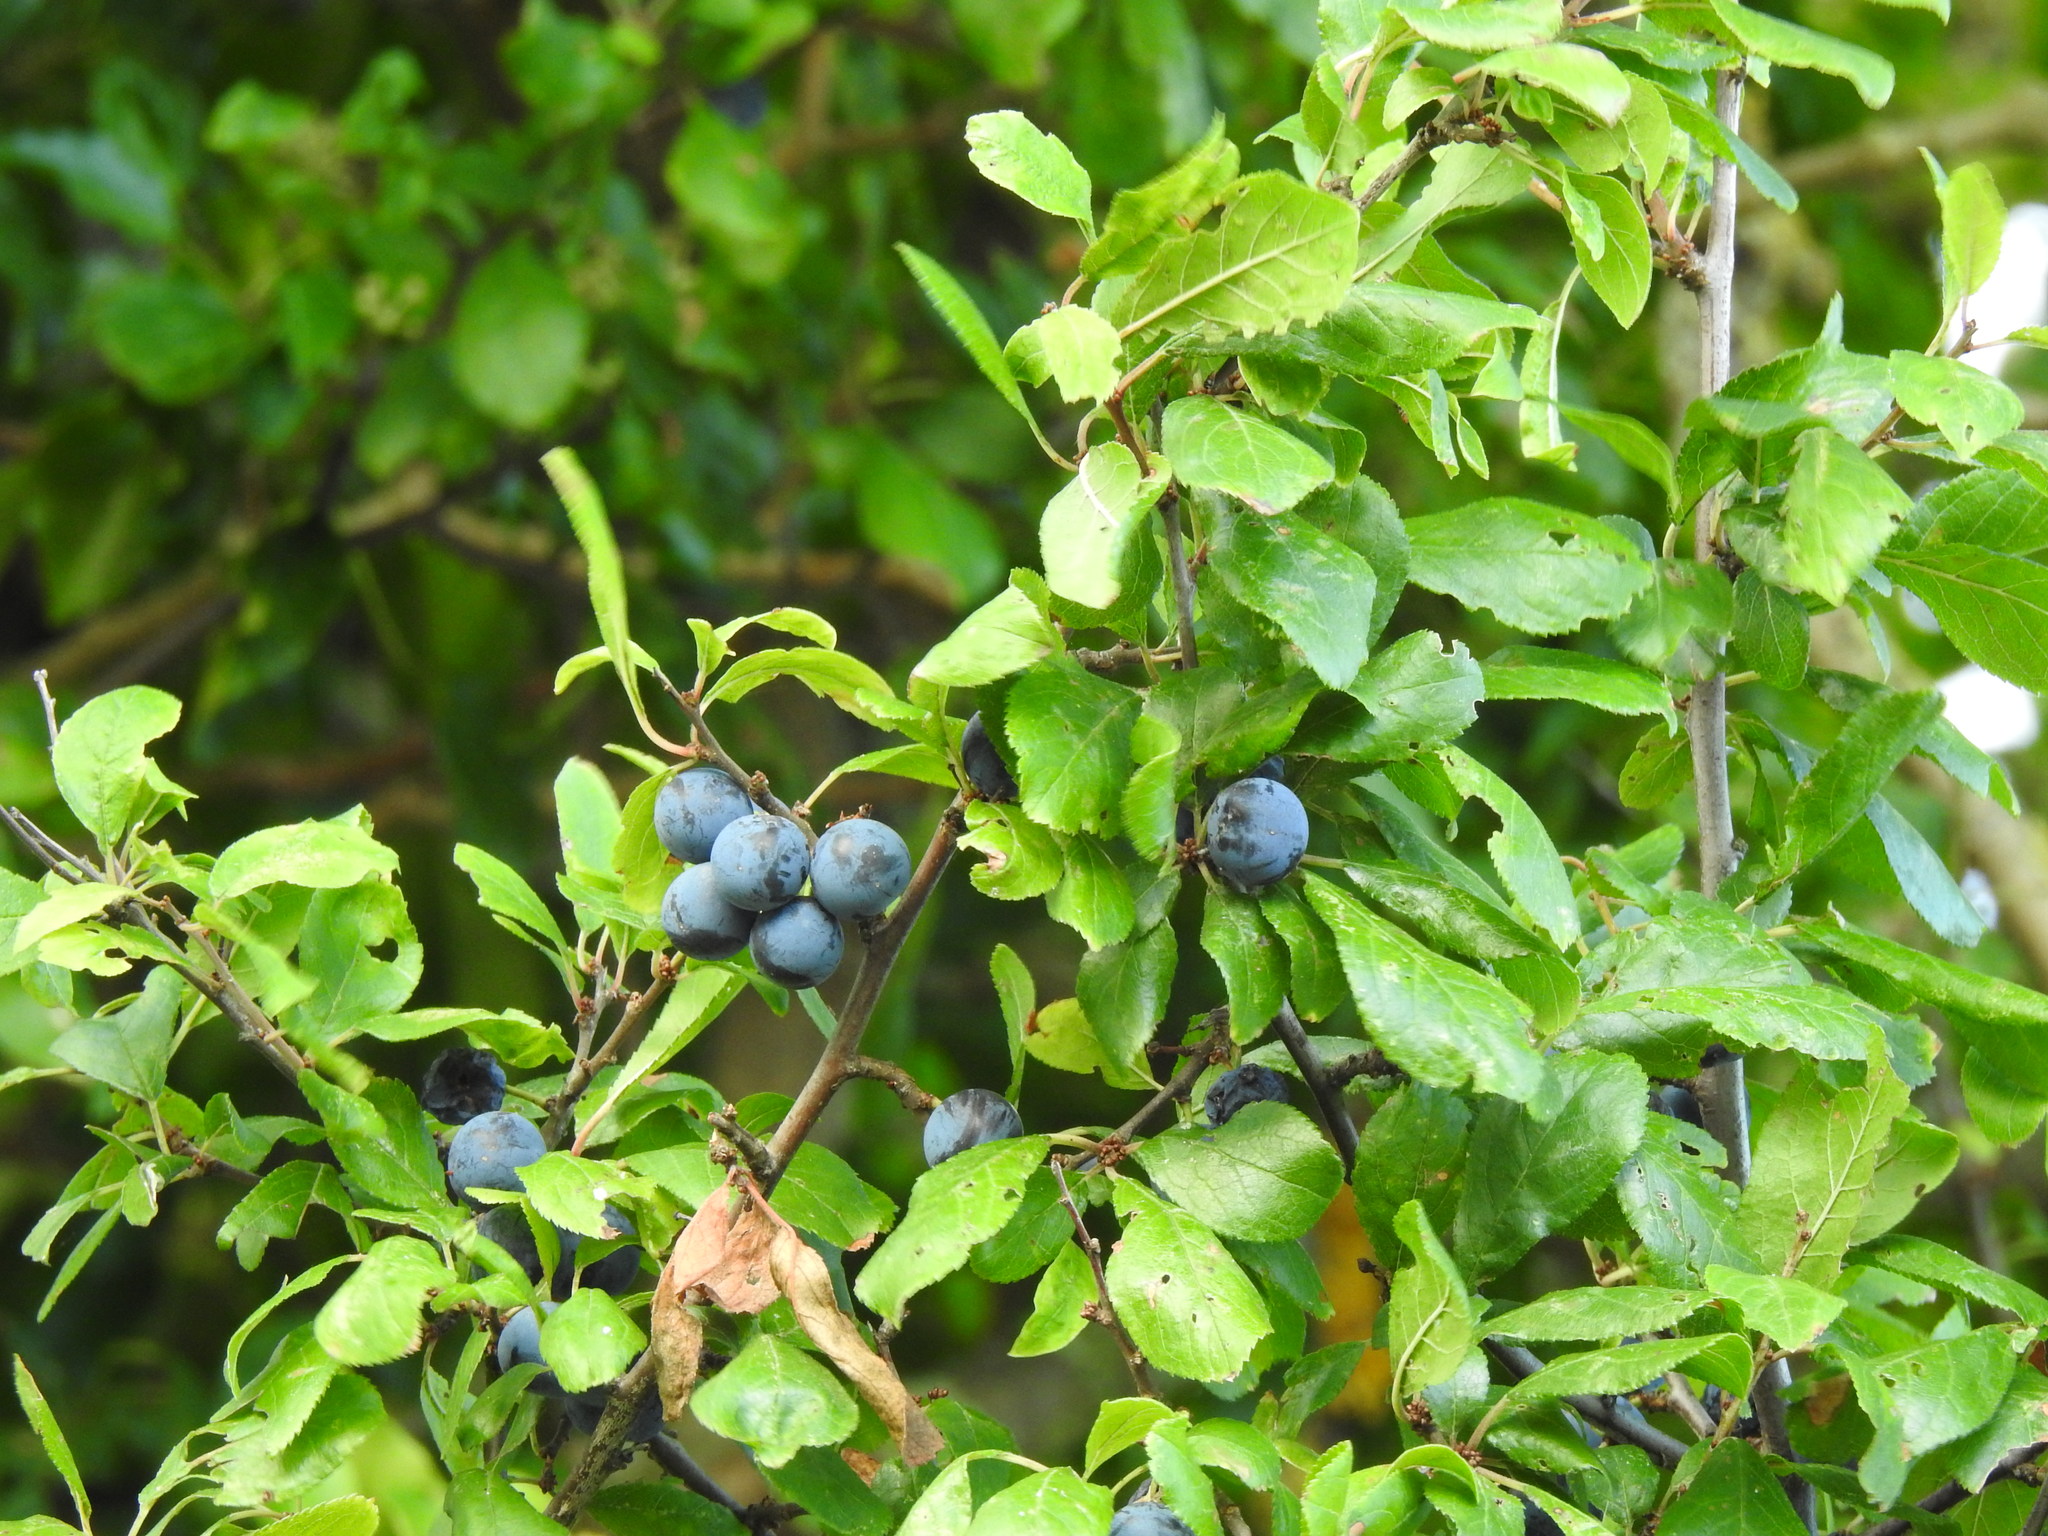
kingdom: Plantae
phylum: Tracheophyta
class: Magnoliopsida
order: Rosales
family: Rosaceae
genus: Prunus
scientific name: Prunus spinosa
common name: Blackthorn
